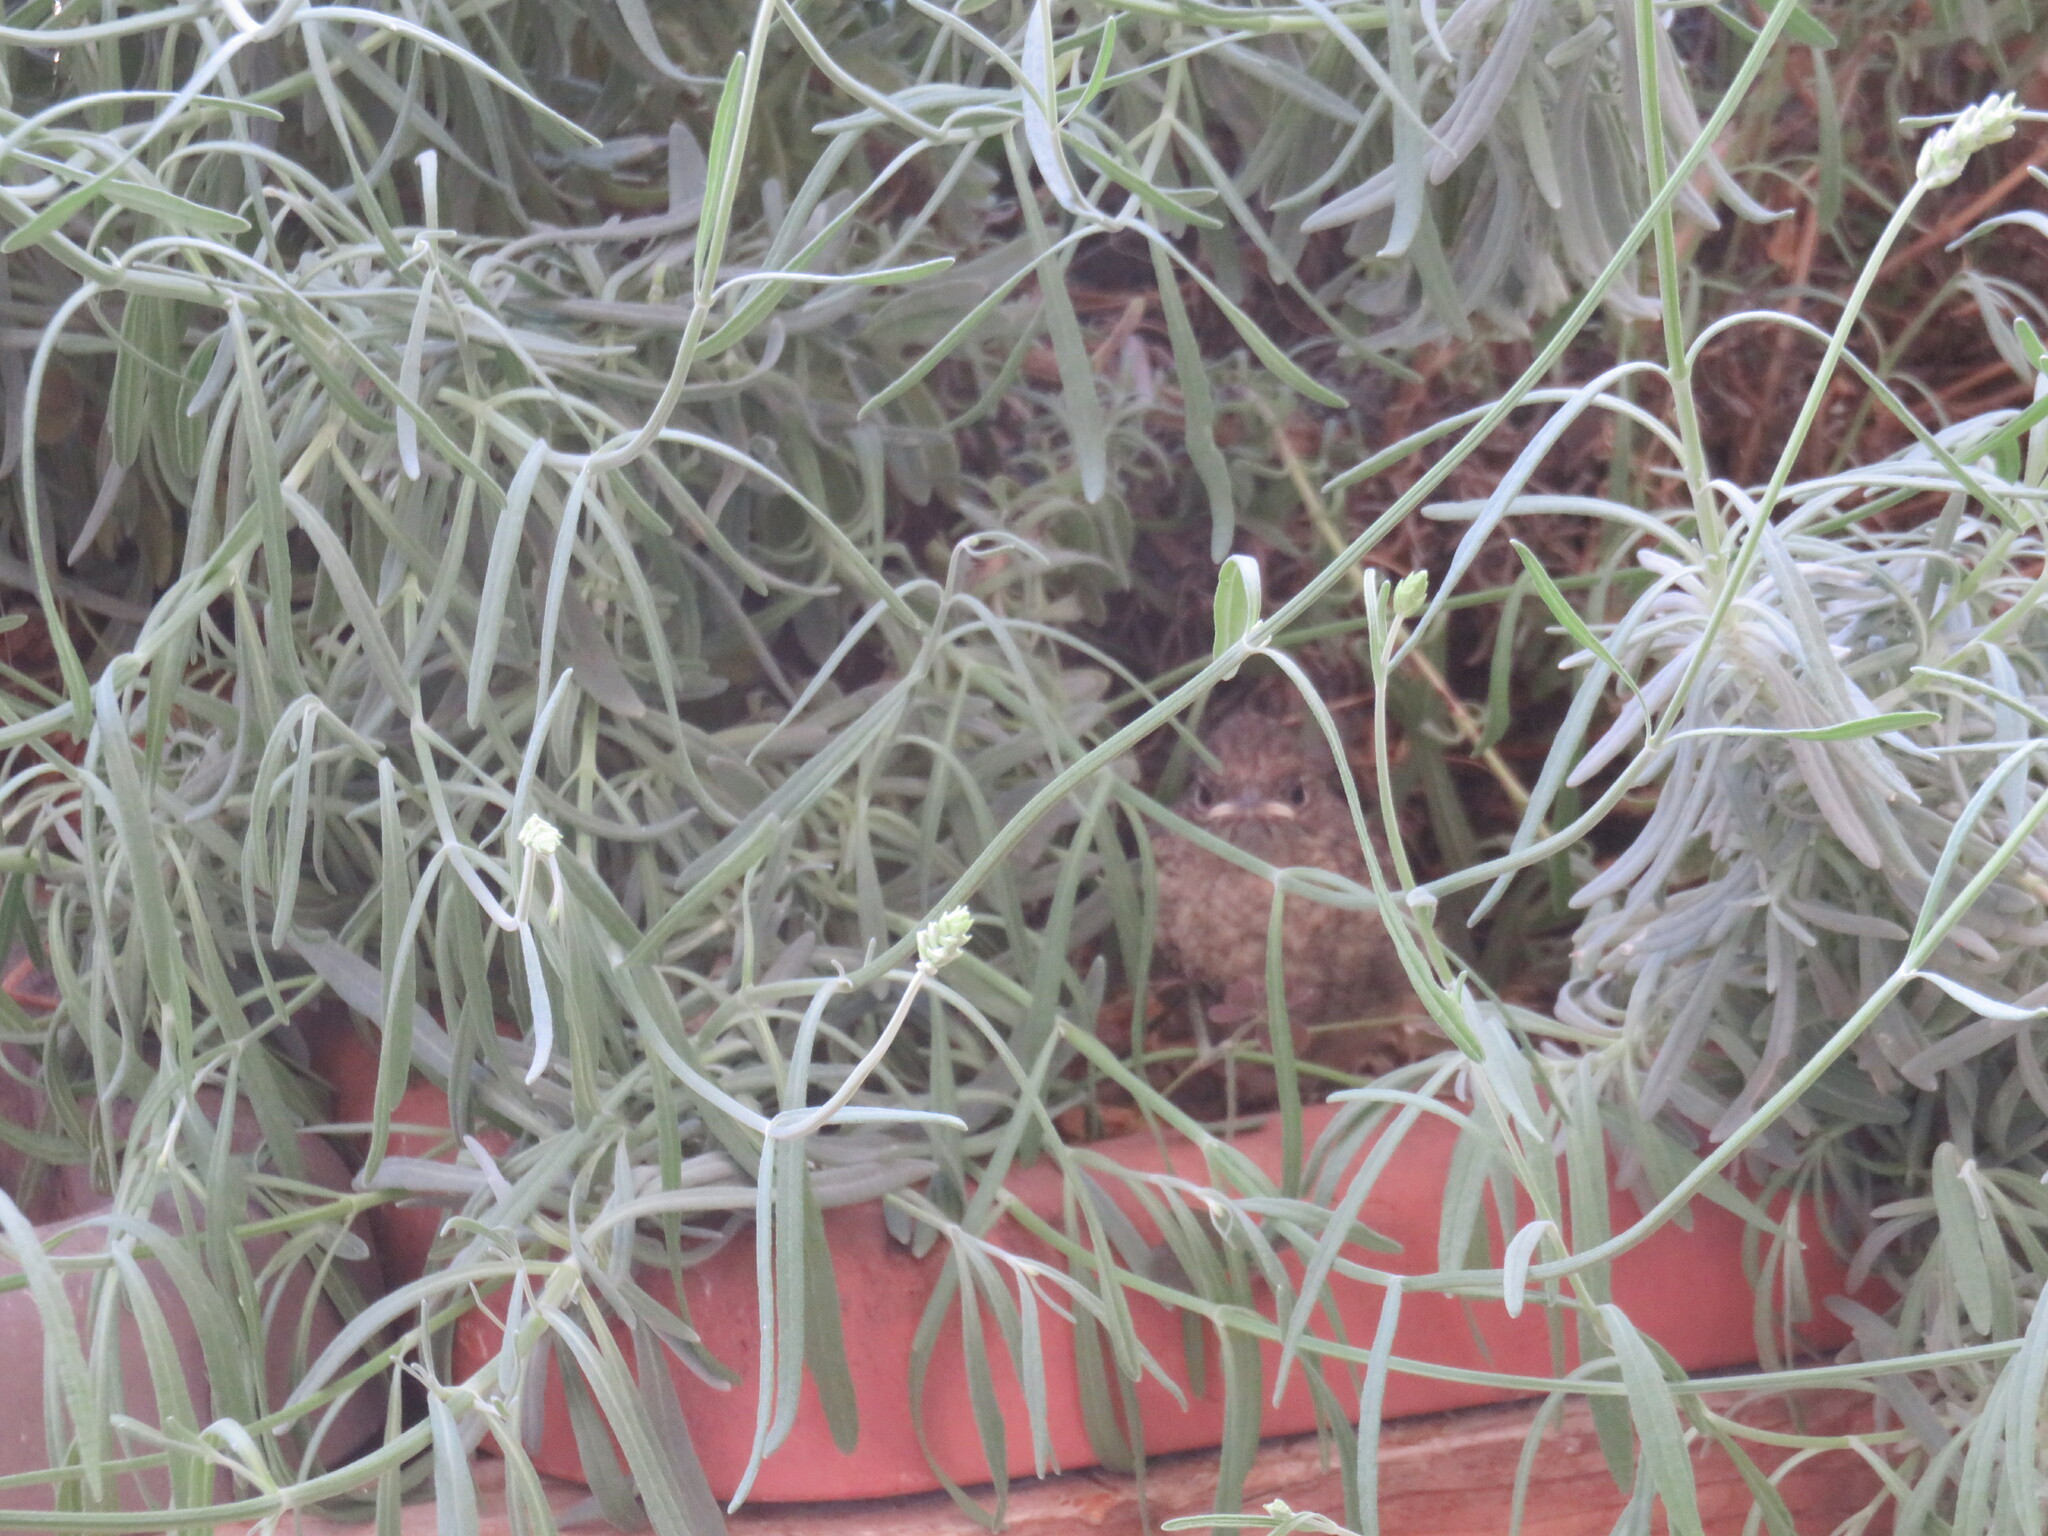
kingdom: Animalia
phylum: Chordata
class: Aves
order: Passeriformes
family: Muscicapidae
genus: Phoenicurus
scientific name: Phoenicurus phoenicurus
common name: Common redstart
